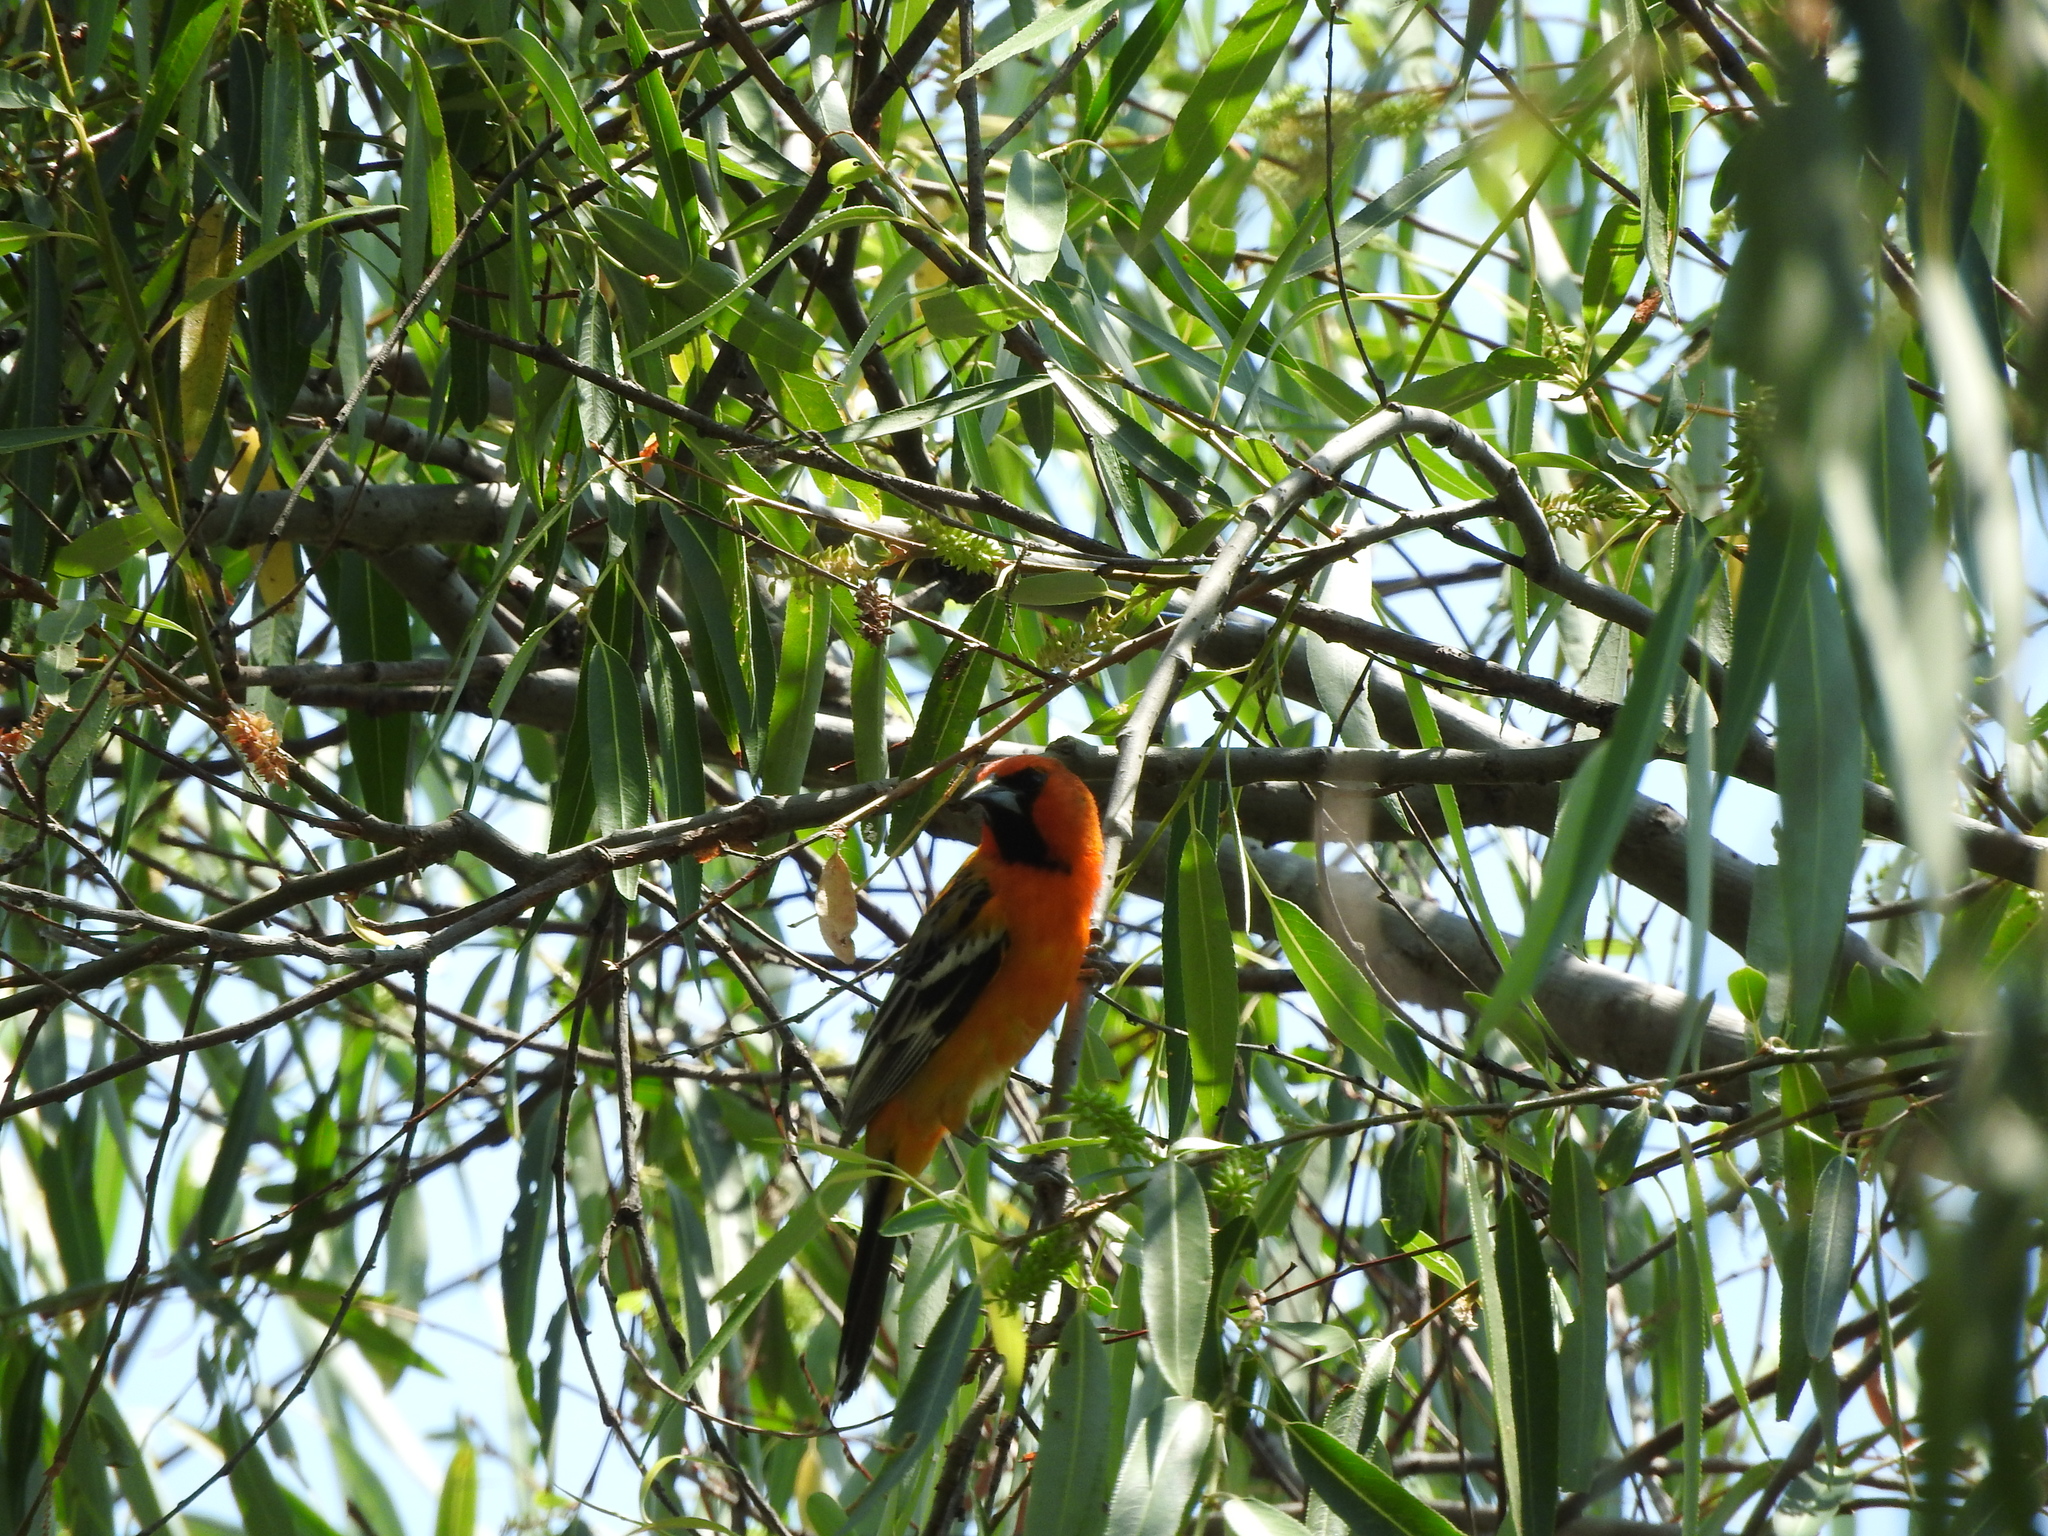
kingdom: Animalia
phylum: Chordata
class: Aves
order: Passeriformes
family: Icteridae
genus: Icterus
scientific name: Icterus pustulatus
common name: Streak-backed oriole
